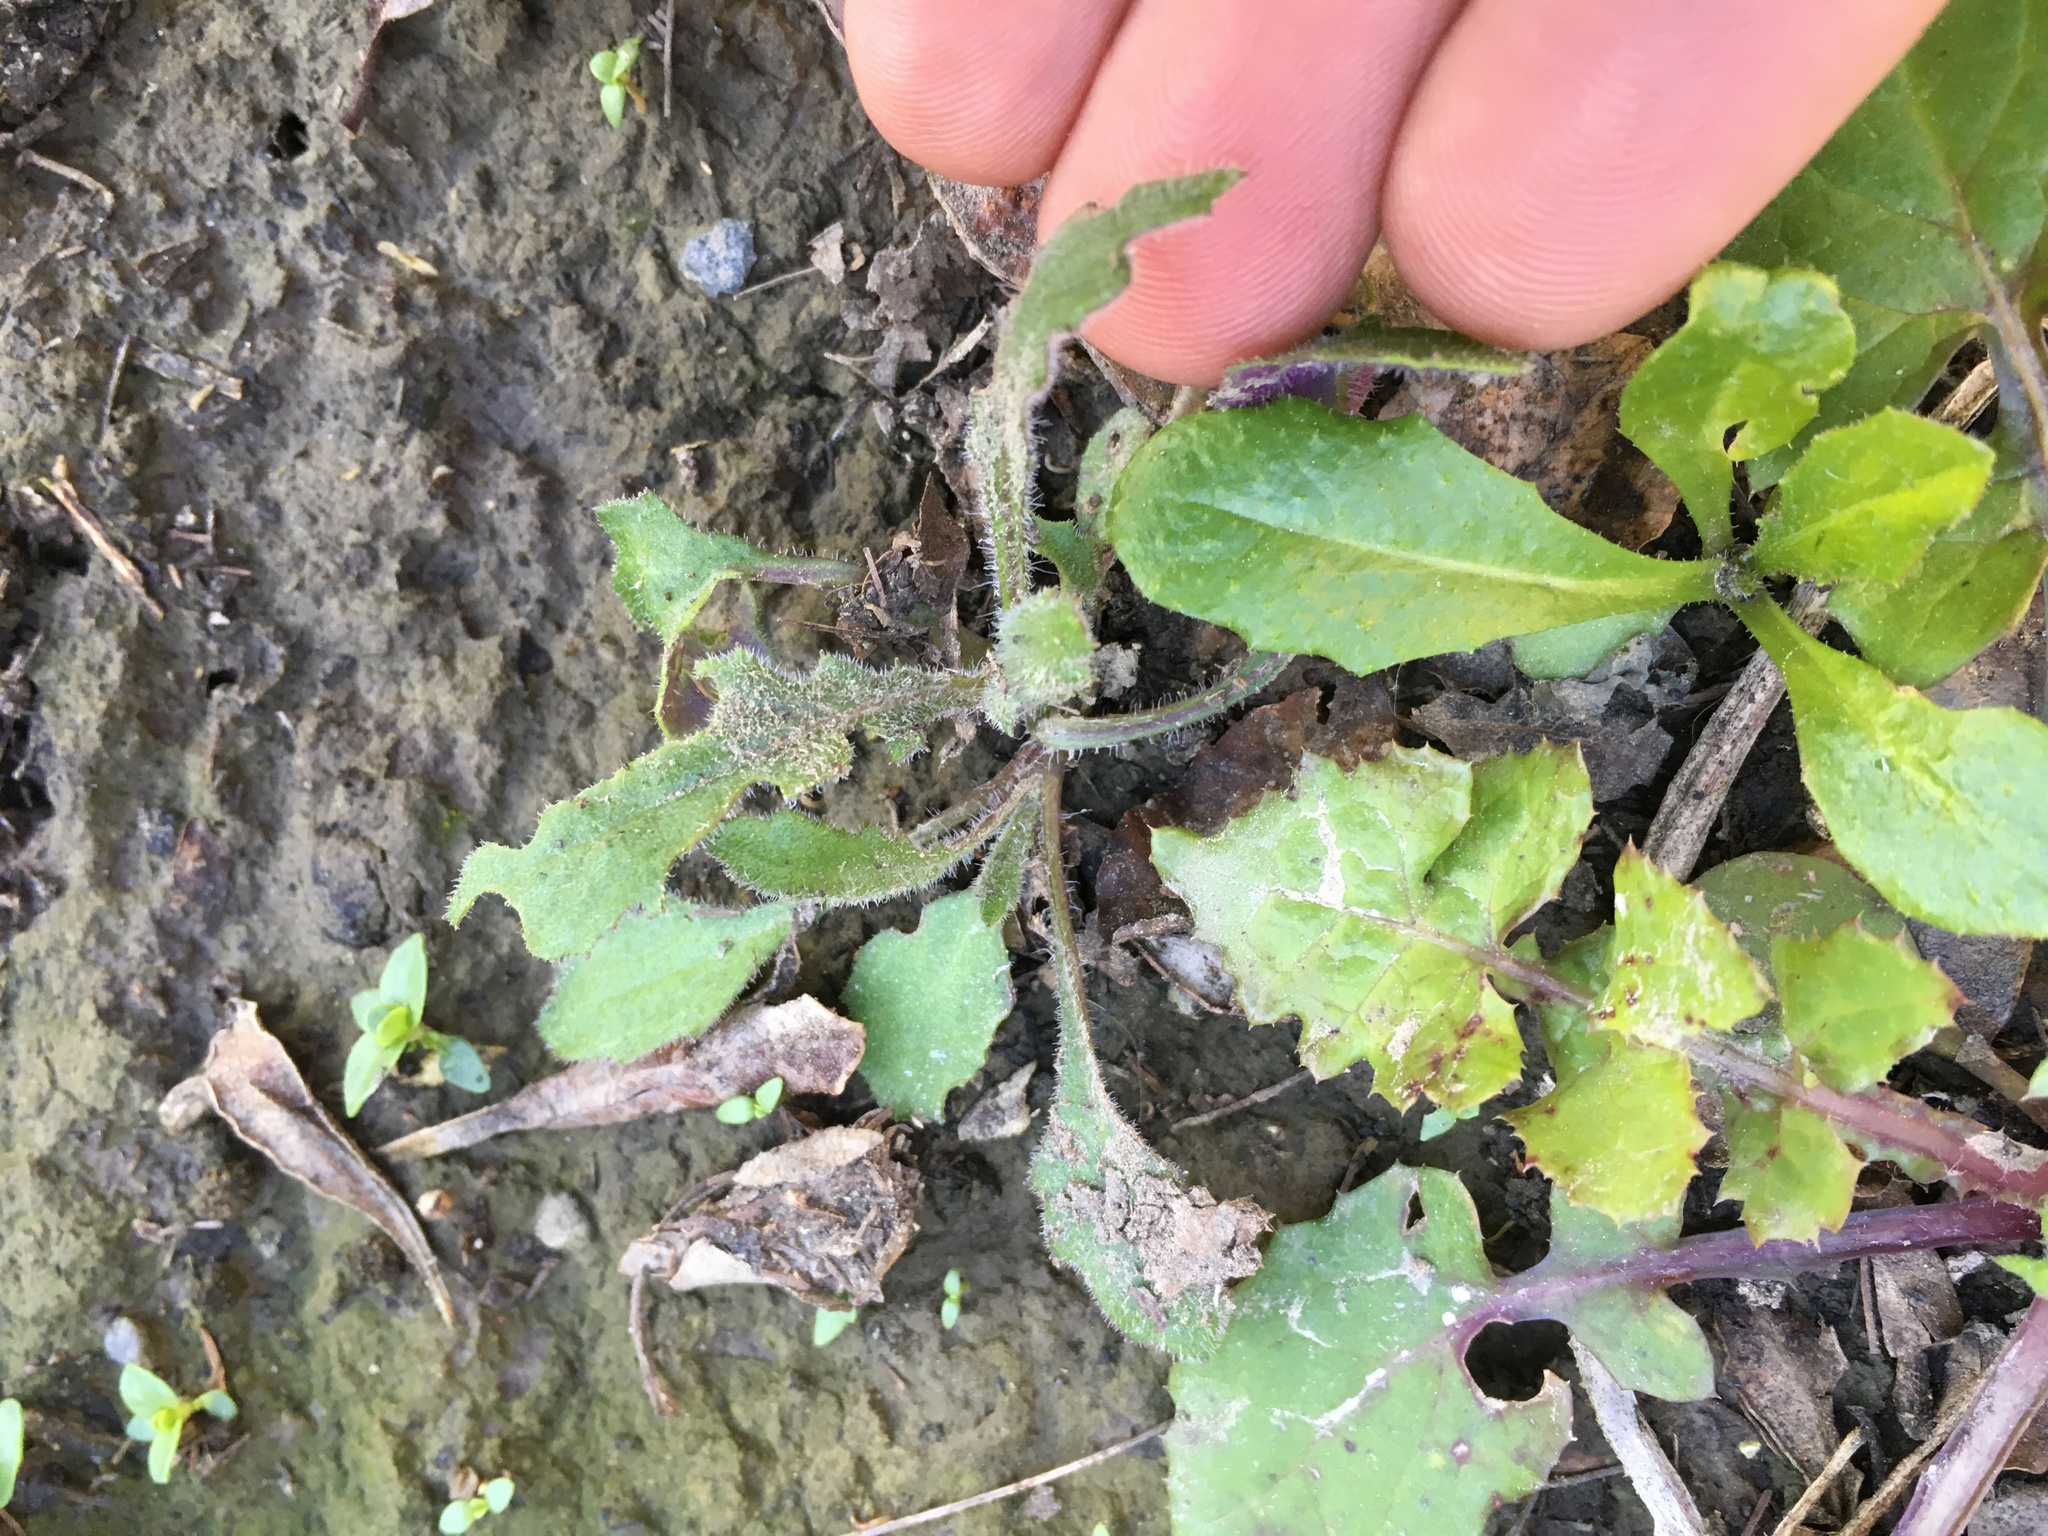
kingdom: Plantae
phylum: Tracheophyta
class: Magnoliopsida
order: Asterales
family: Asteraceae
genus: Senecio
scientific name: Senecio glomeratus
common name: Cutleaf burnweed
